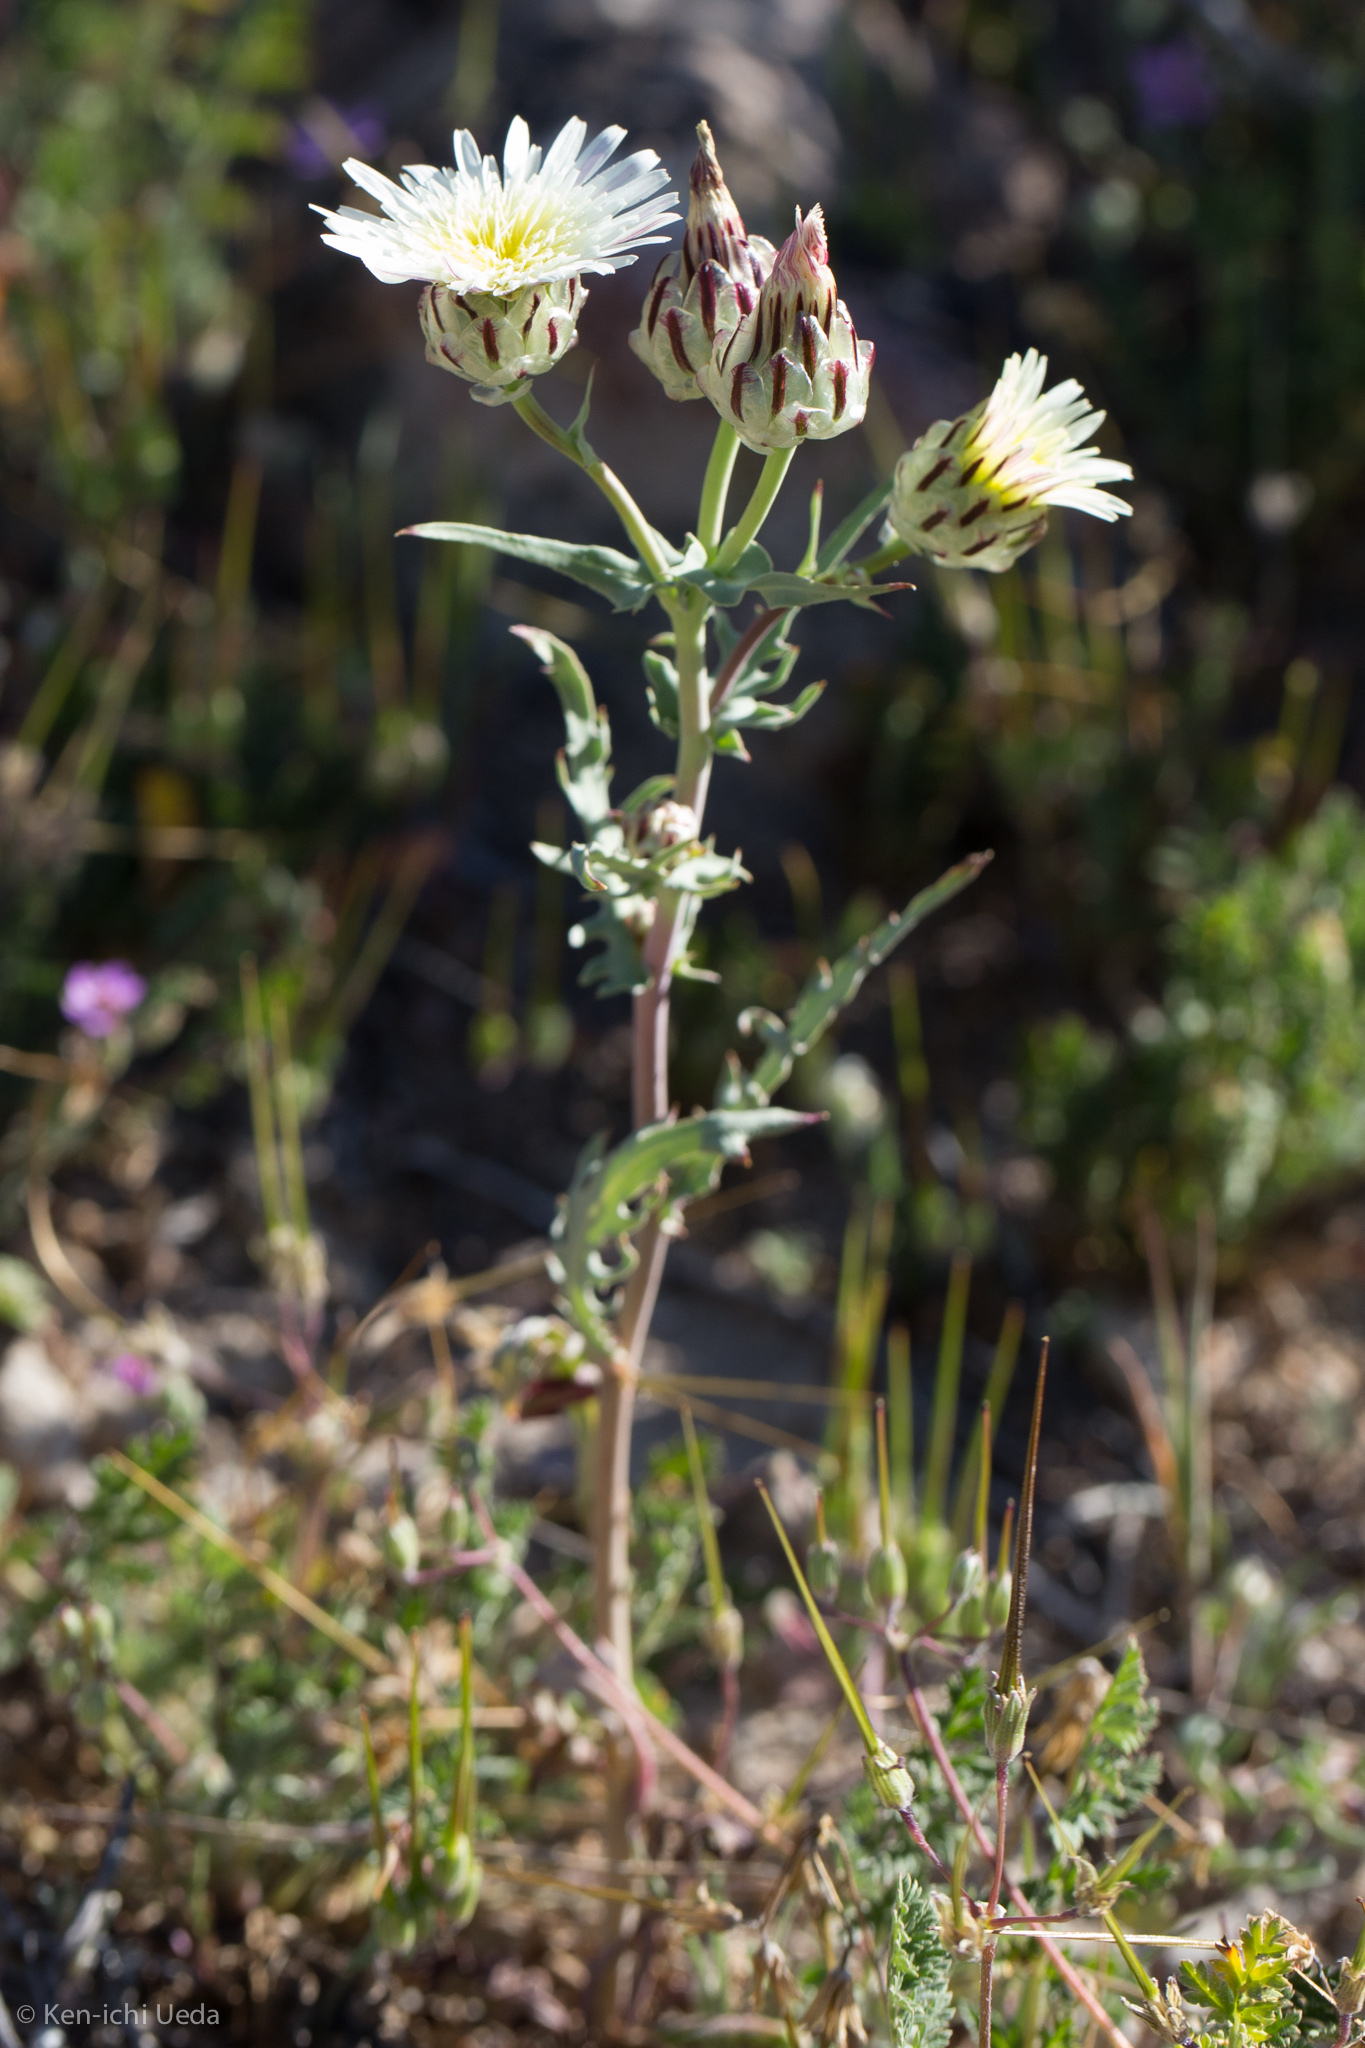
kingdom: Plantae
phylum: Tracheophyta
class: Magnoliopsida
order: Asterales
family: Asteraceae
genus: Malacothrix
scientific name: Malacothrix coulteri
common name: Snake's-head
